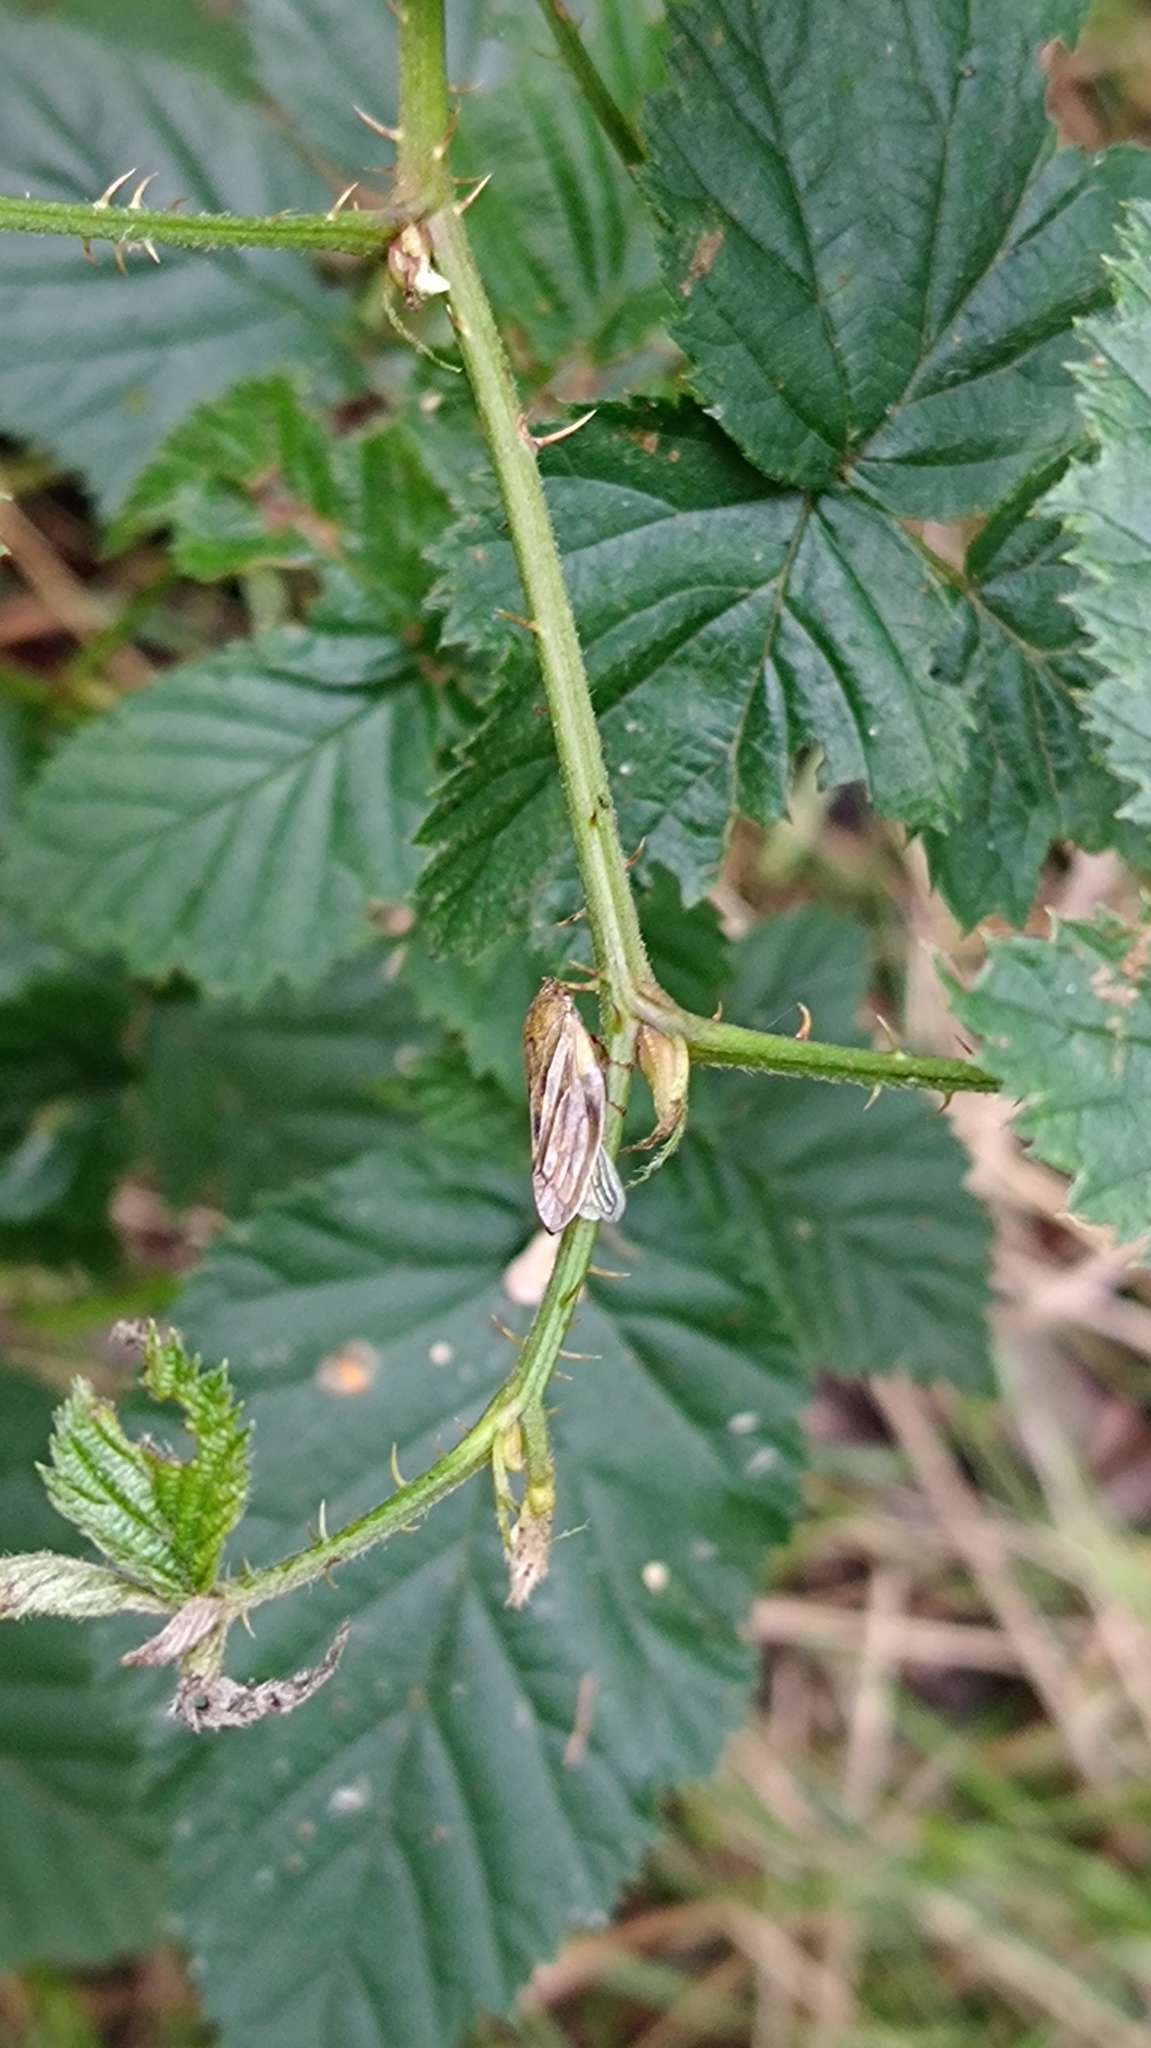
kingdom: Animalia
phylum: Arthropoda
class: Insecta
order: Hemiptera
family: Aphrophoridae
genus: Aphrophora
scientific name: Aphrophora alni
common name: European alder spittlebug
